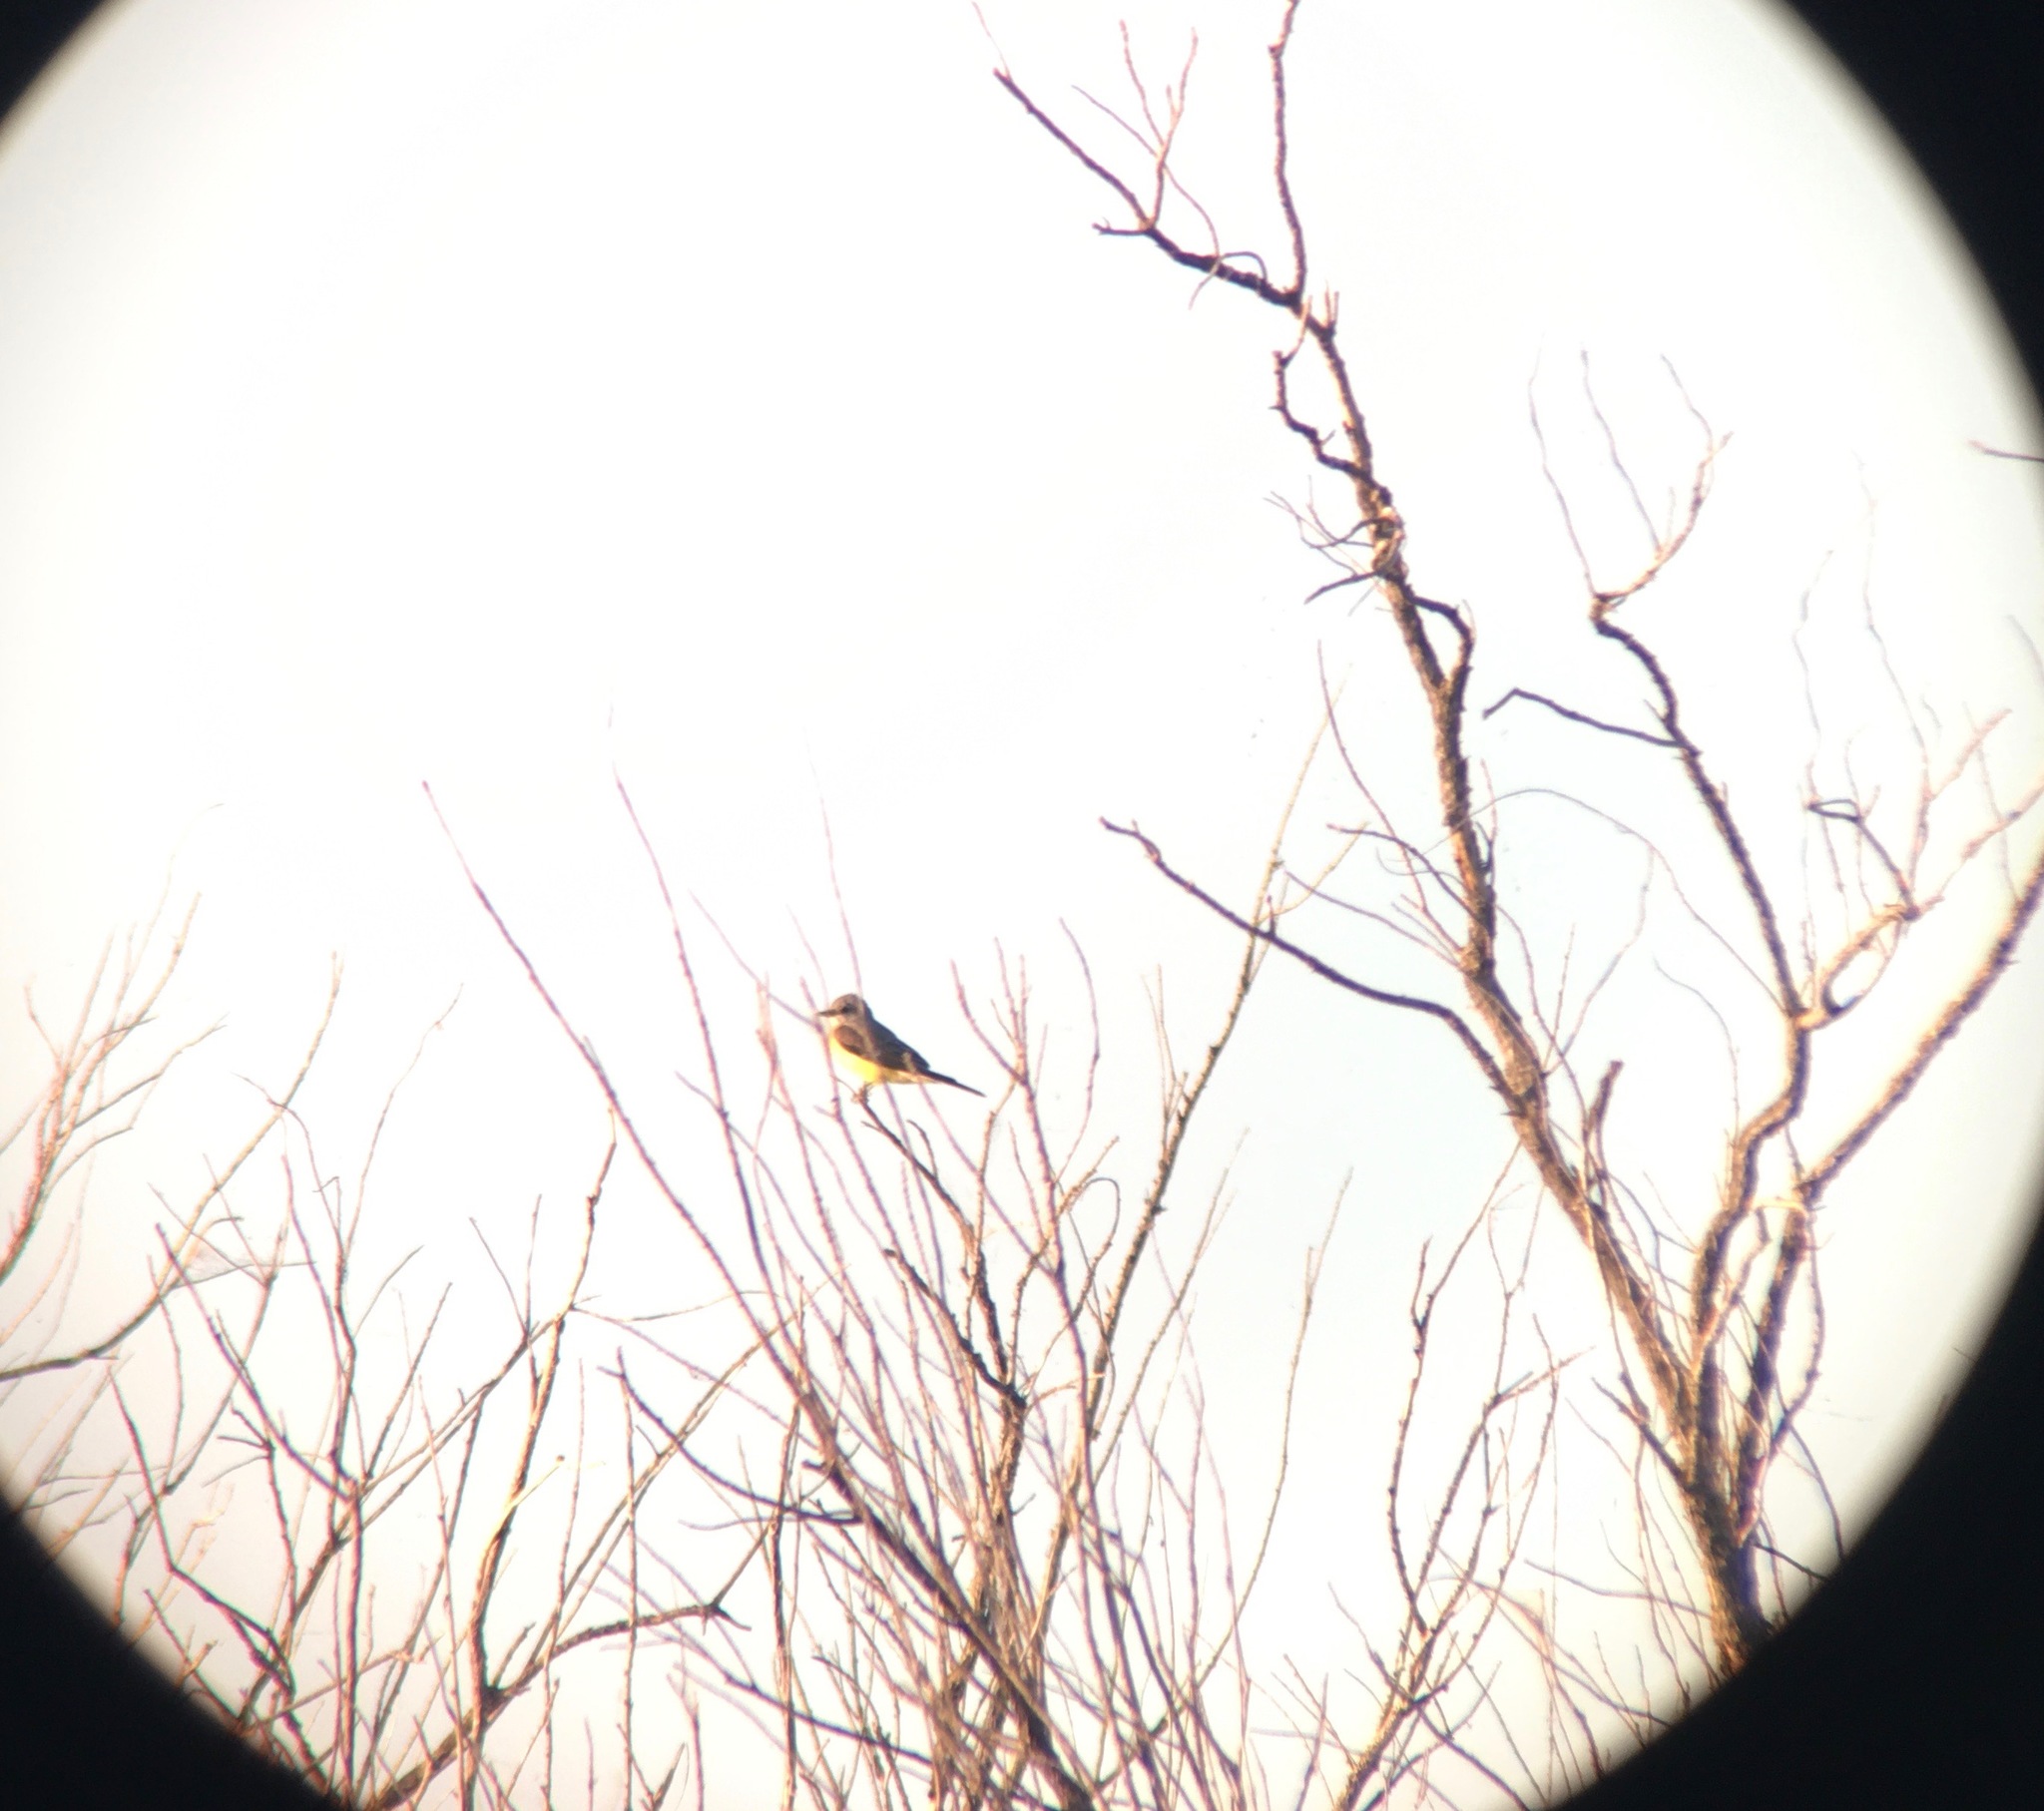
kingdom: Animalia
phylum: Chordata
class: Aves
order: Passeriformes
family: Tyrannidae
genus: Tyrannus
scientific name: Tyrannus melancholicus
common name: Tropical kingbird
